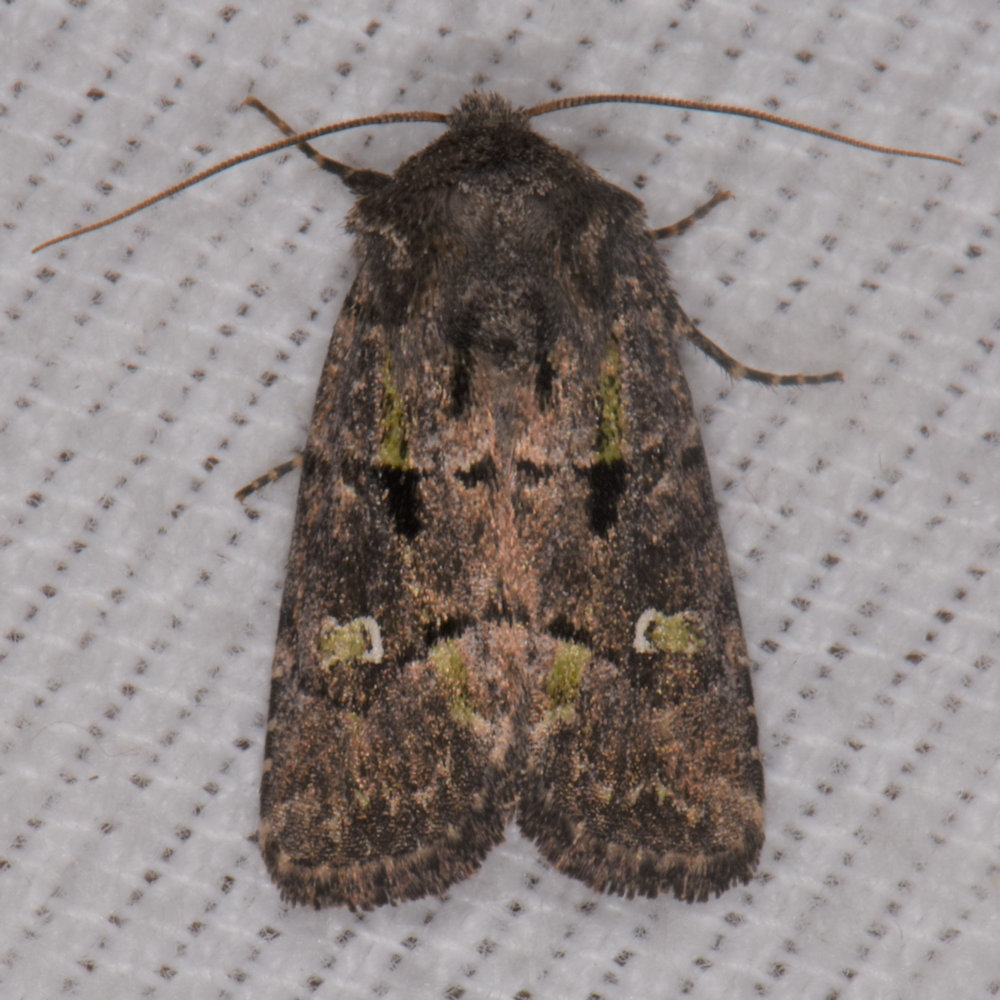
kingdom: Animalia
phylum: Arthropoda
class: Insecta
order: Lepidoptera
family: Noctuidae
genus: Lacinipolia
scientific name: Lacinipolia renigera
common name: Kidney-spotted minor
